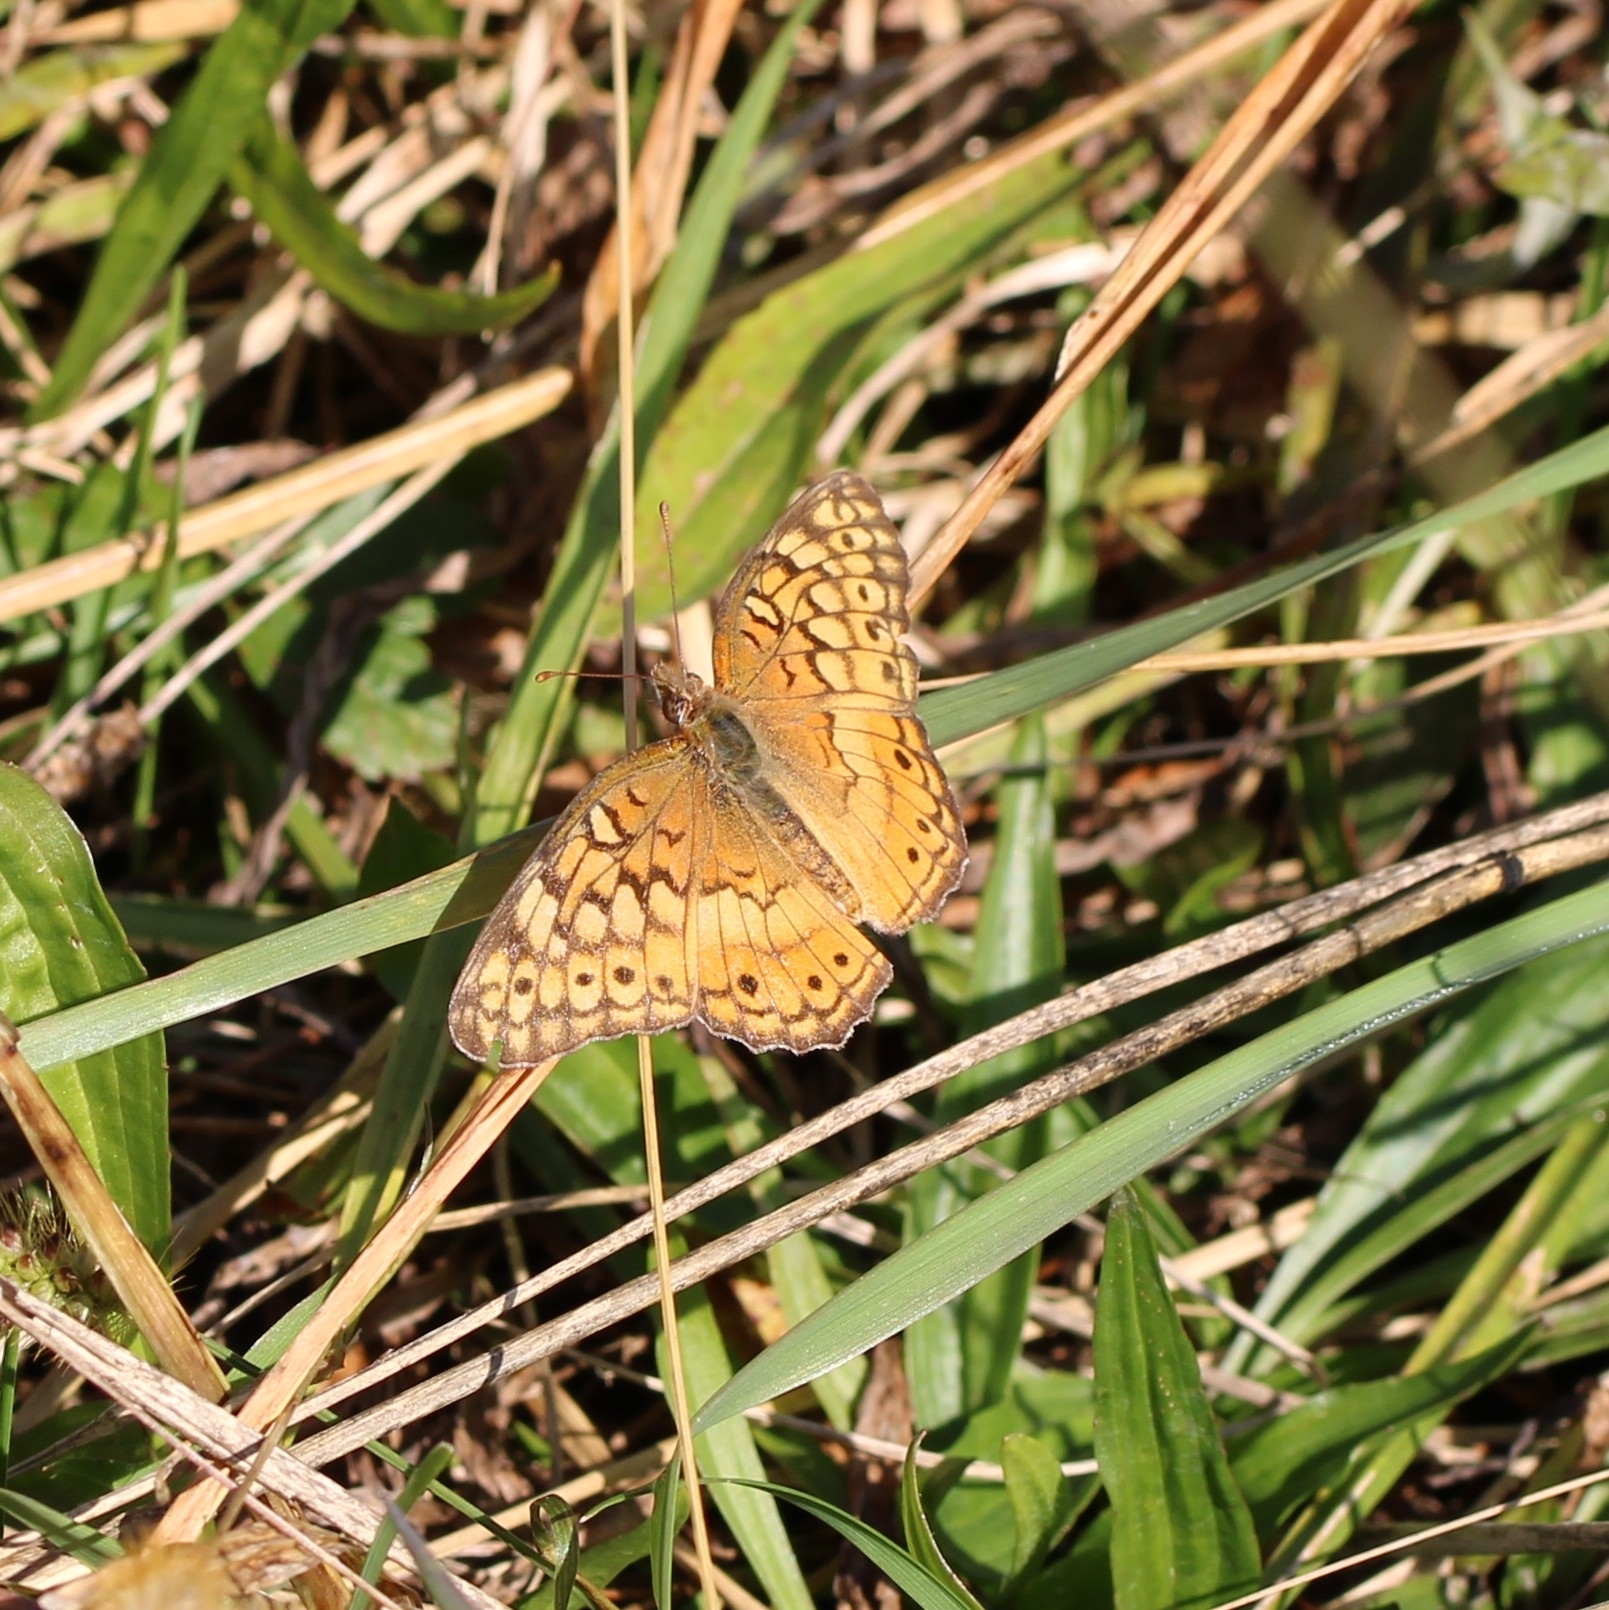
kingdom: Animalia
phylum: Arthropoda
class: Insecta
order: Lepidoptera
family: Nymphalidae
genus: Euptoieta
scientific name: Euptoieta claudia
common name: Variegated fritillary
